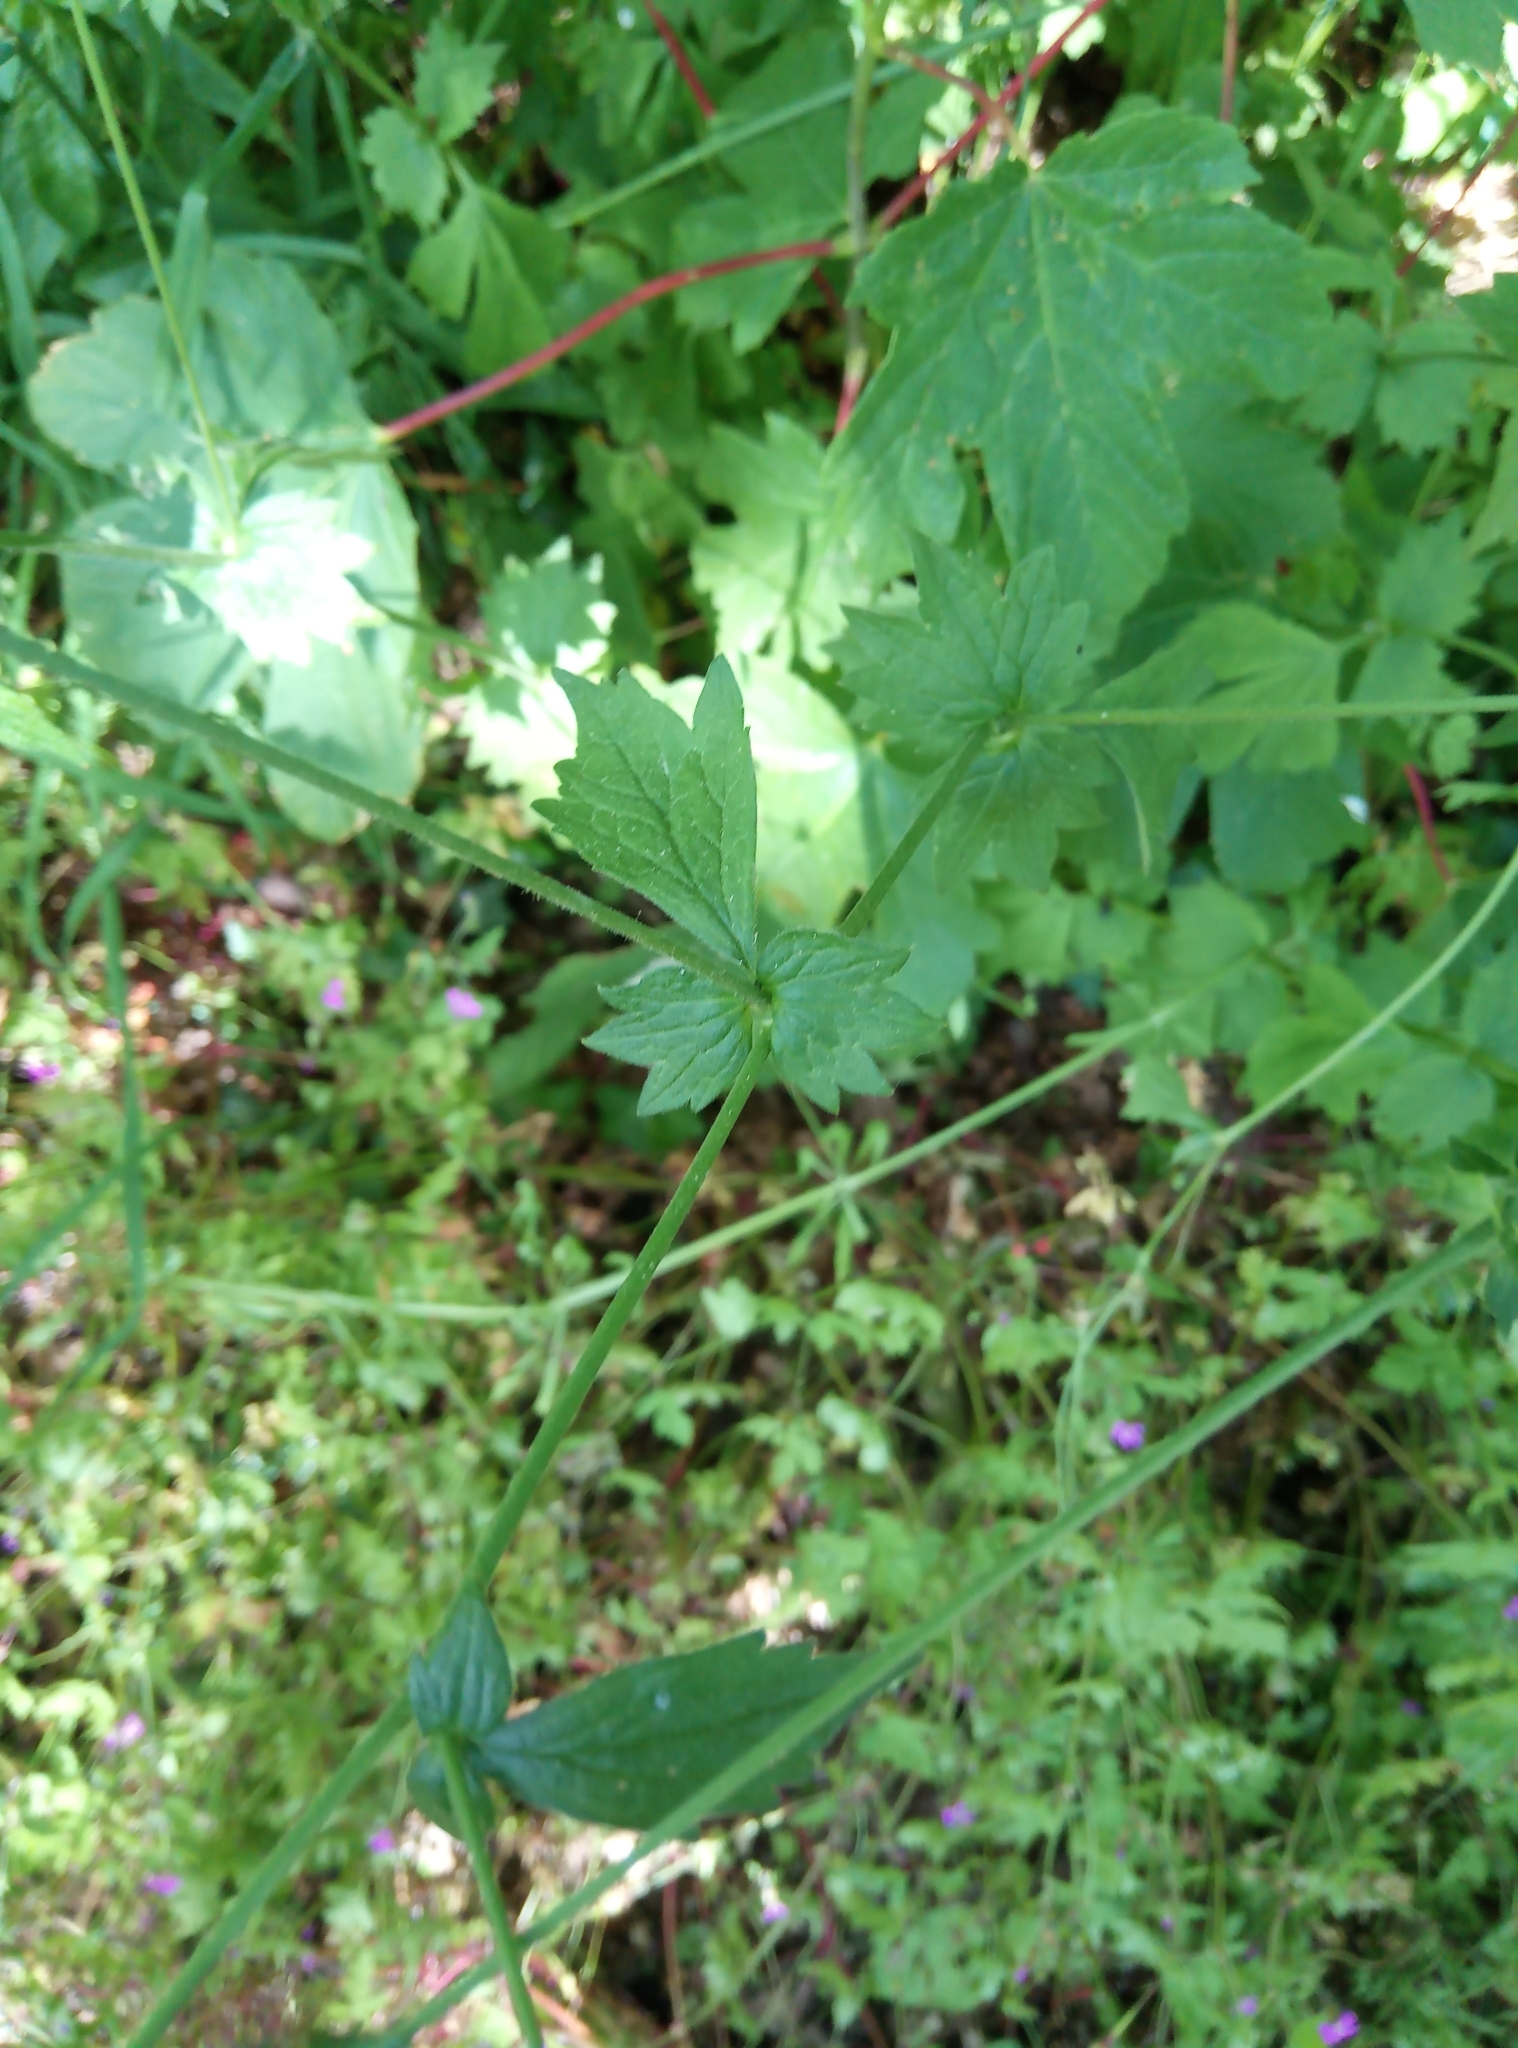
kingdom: Plantae
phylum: Tracheophyta
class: Magnoliopsida
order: Rosales
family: Rosaceae
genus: Geum
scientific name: Geum urbanum
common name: Wood avens
